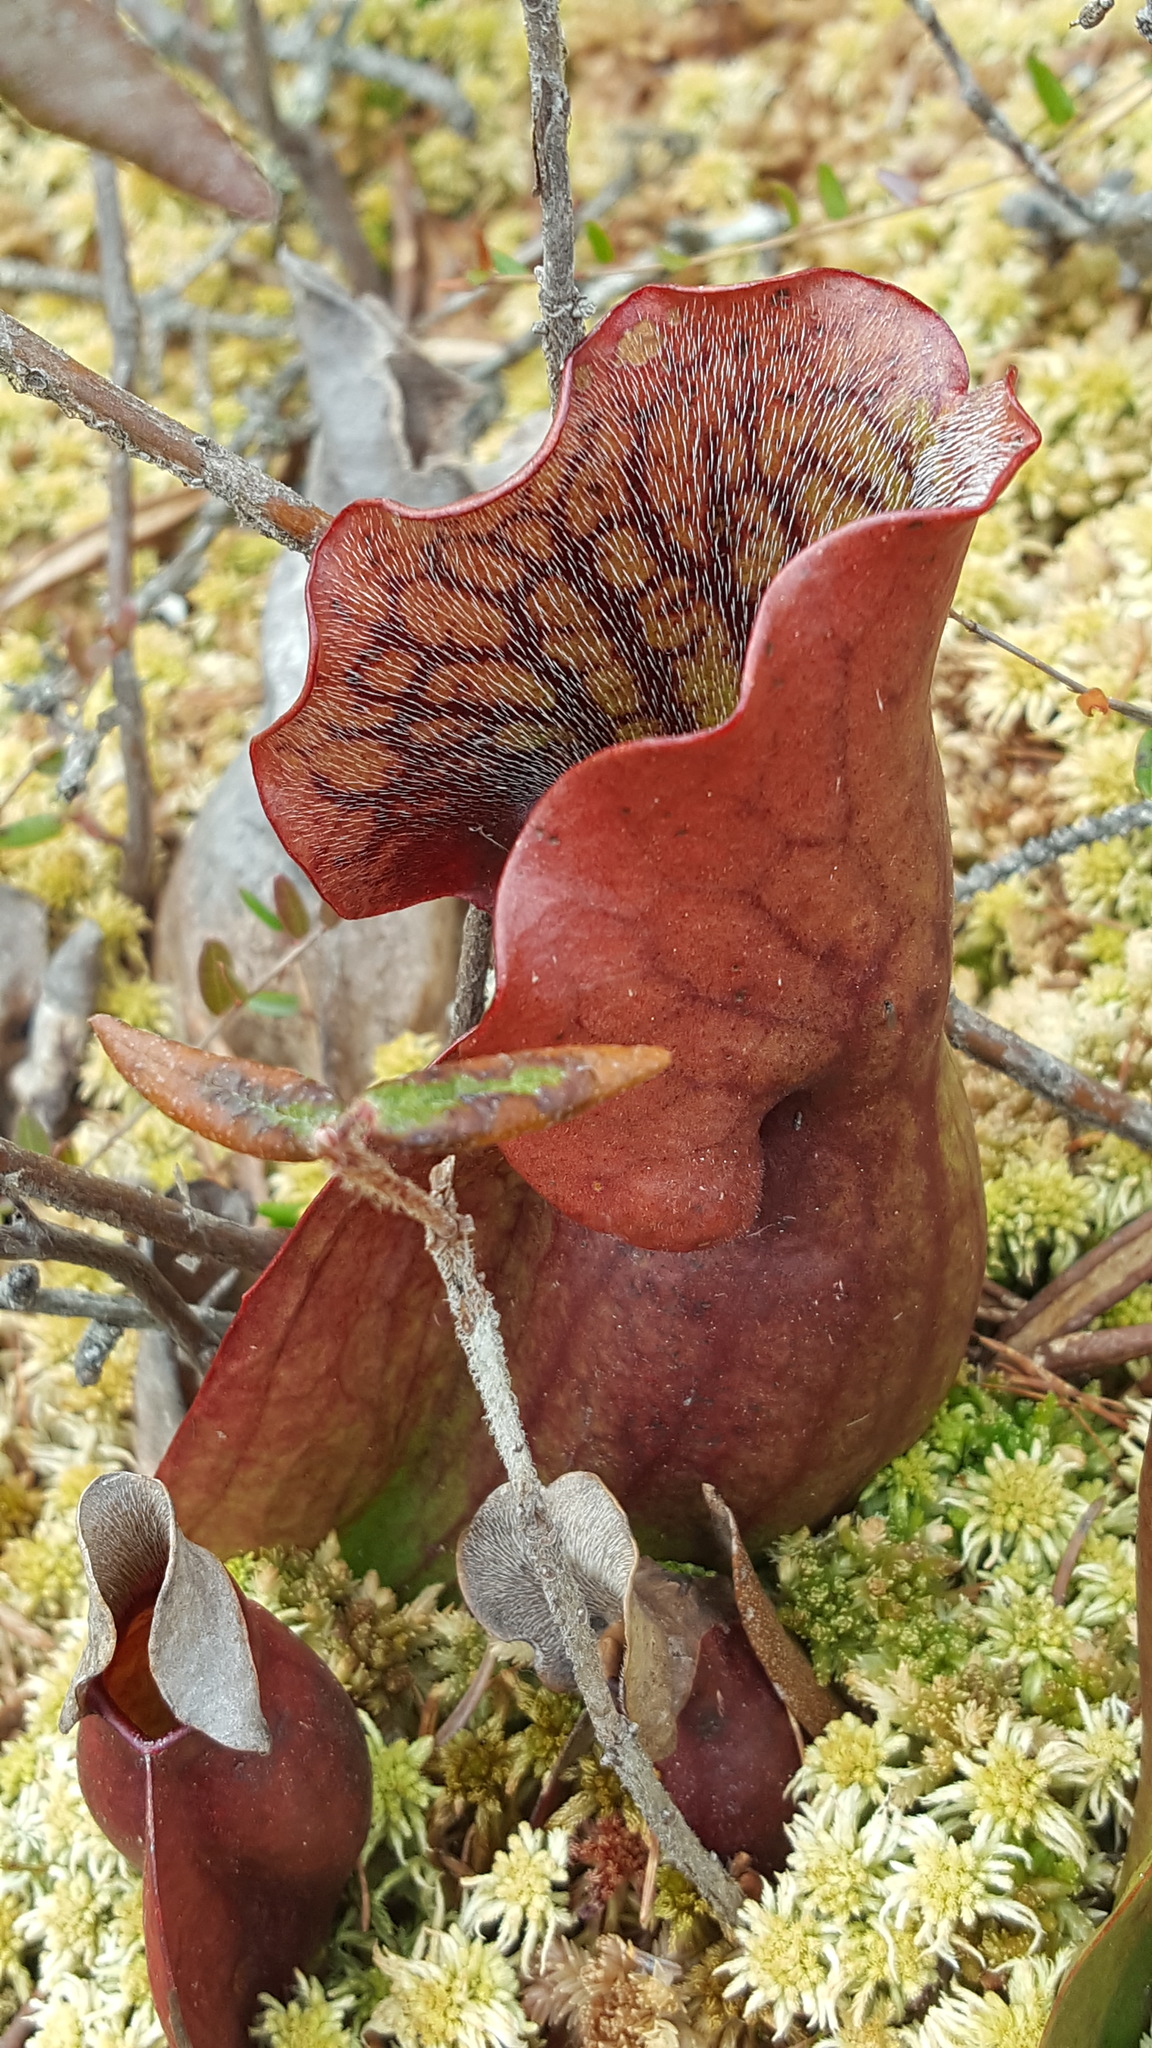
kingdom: Plantae
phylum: Tracheophyta
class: Magnoliopsida
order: Ericales
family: Sarraceniaceae
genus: Sarracenia
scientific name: Sarracenia purpurea
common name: Pitcherplant
